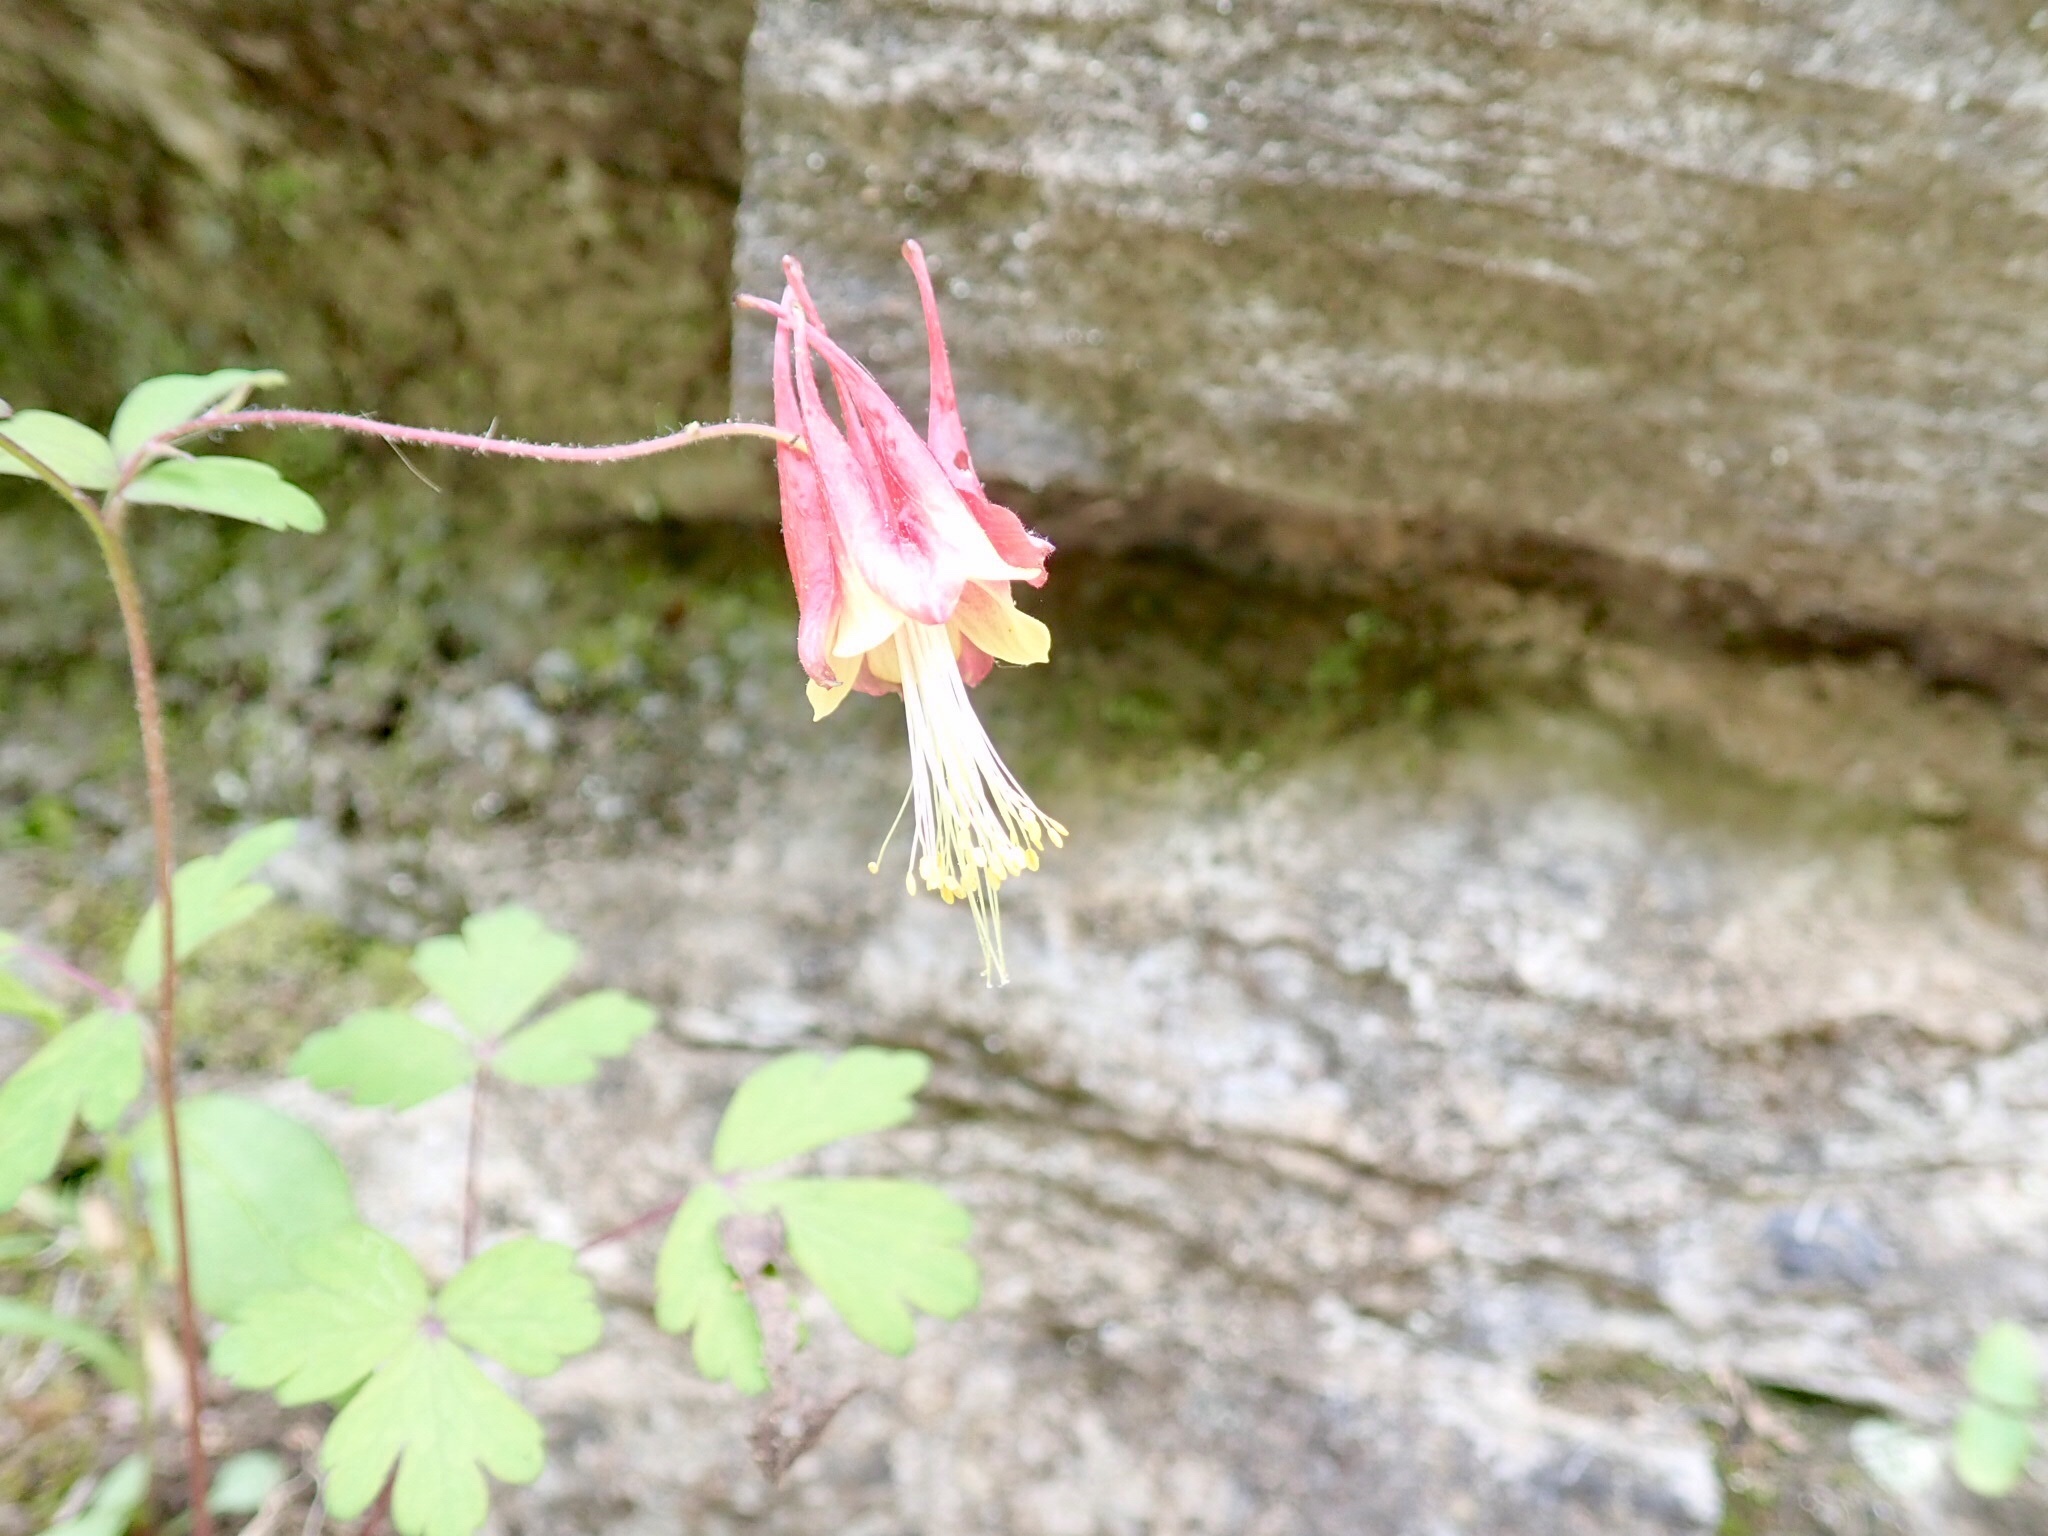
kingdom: Plantae
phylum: Tracheophyta
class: Magnoliopsida
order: Ranunculales
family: Ranunculaceae
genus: Aquilegia
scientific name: Aquilegia canadensis
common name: American columbine
